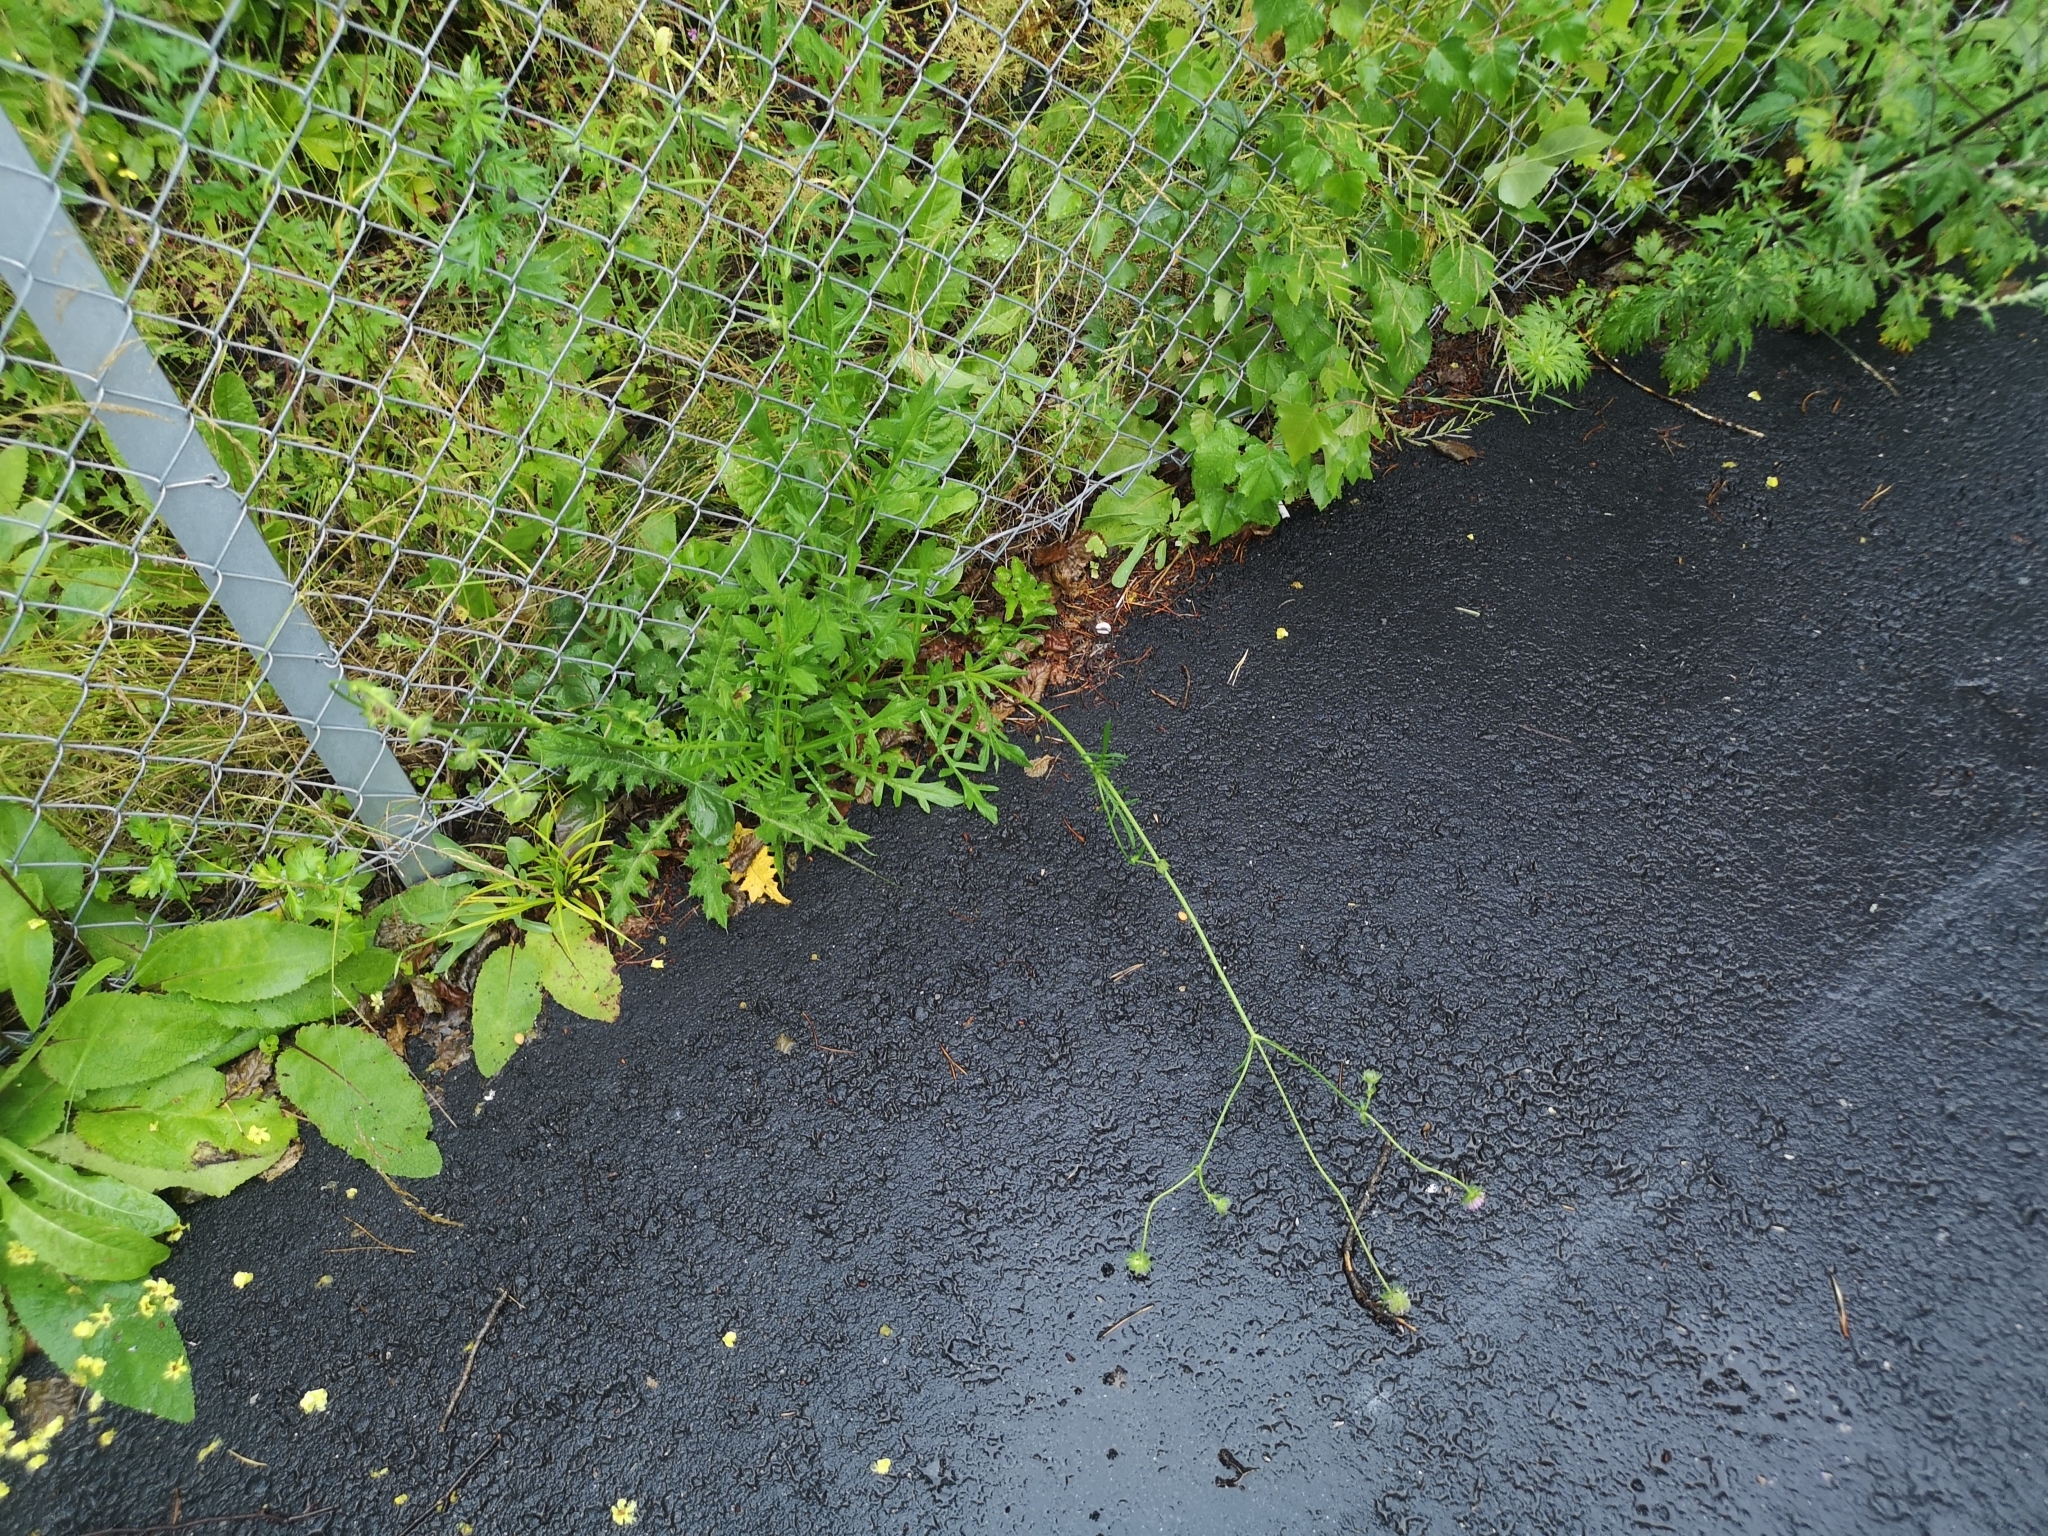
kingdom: Plantae
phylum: Tracheophyta
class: Magnoliopsida
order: Dipsacales
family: Caprifoliaceae
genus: Knautia
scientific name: Knautia arvensis
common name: Field scabiosa
